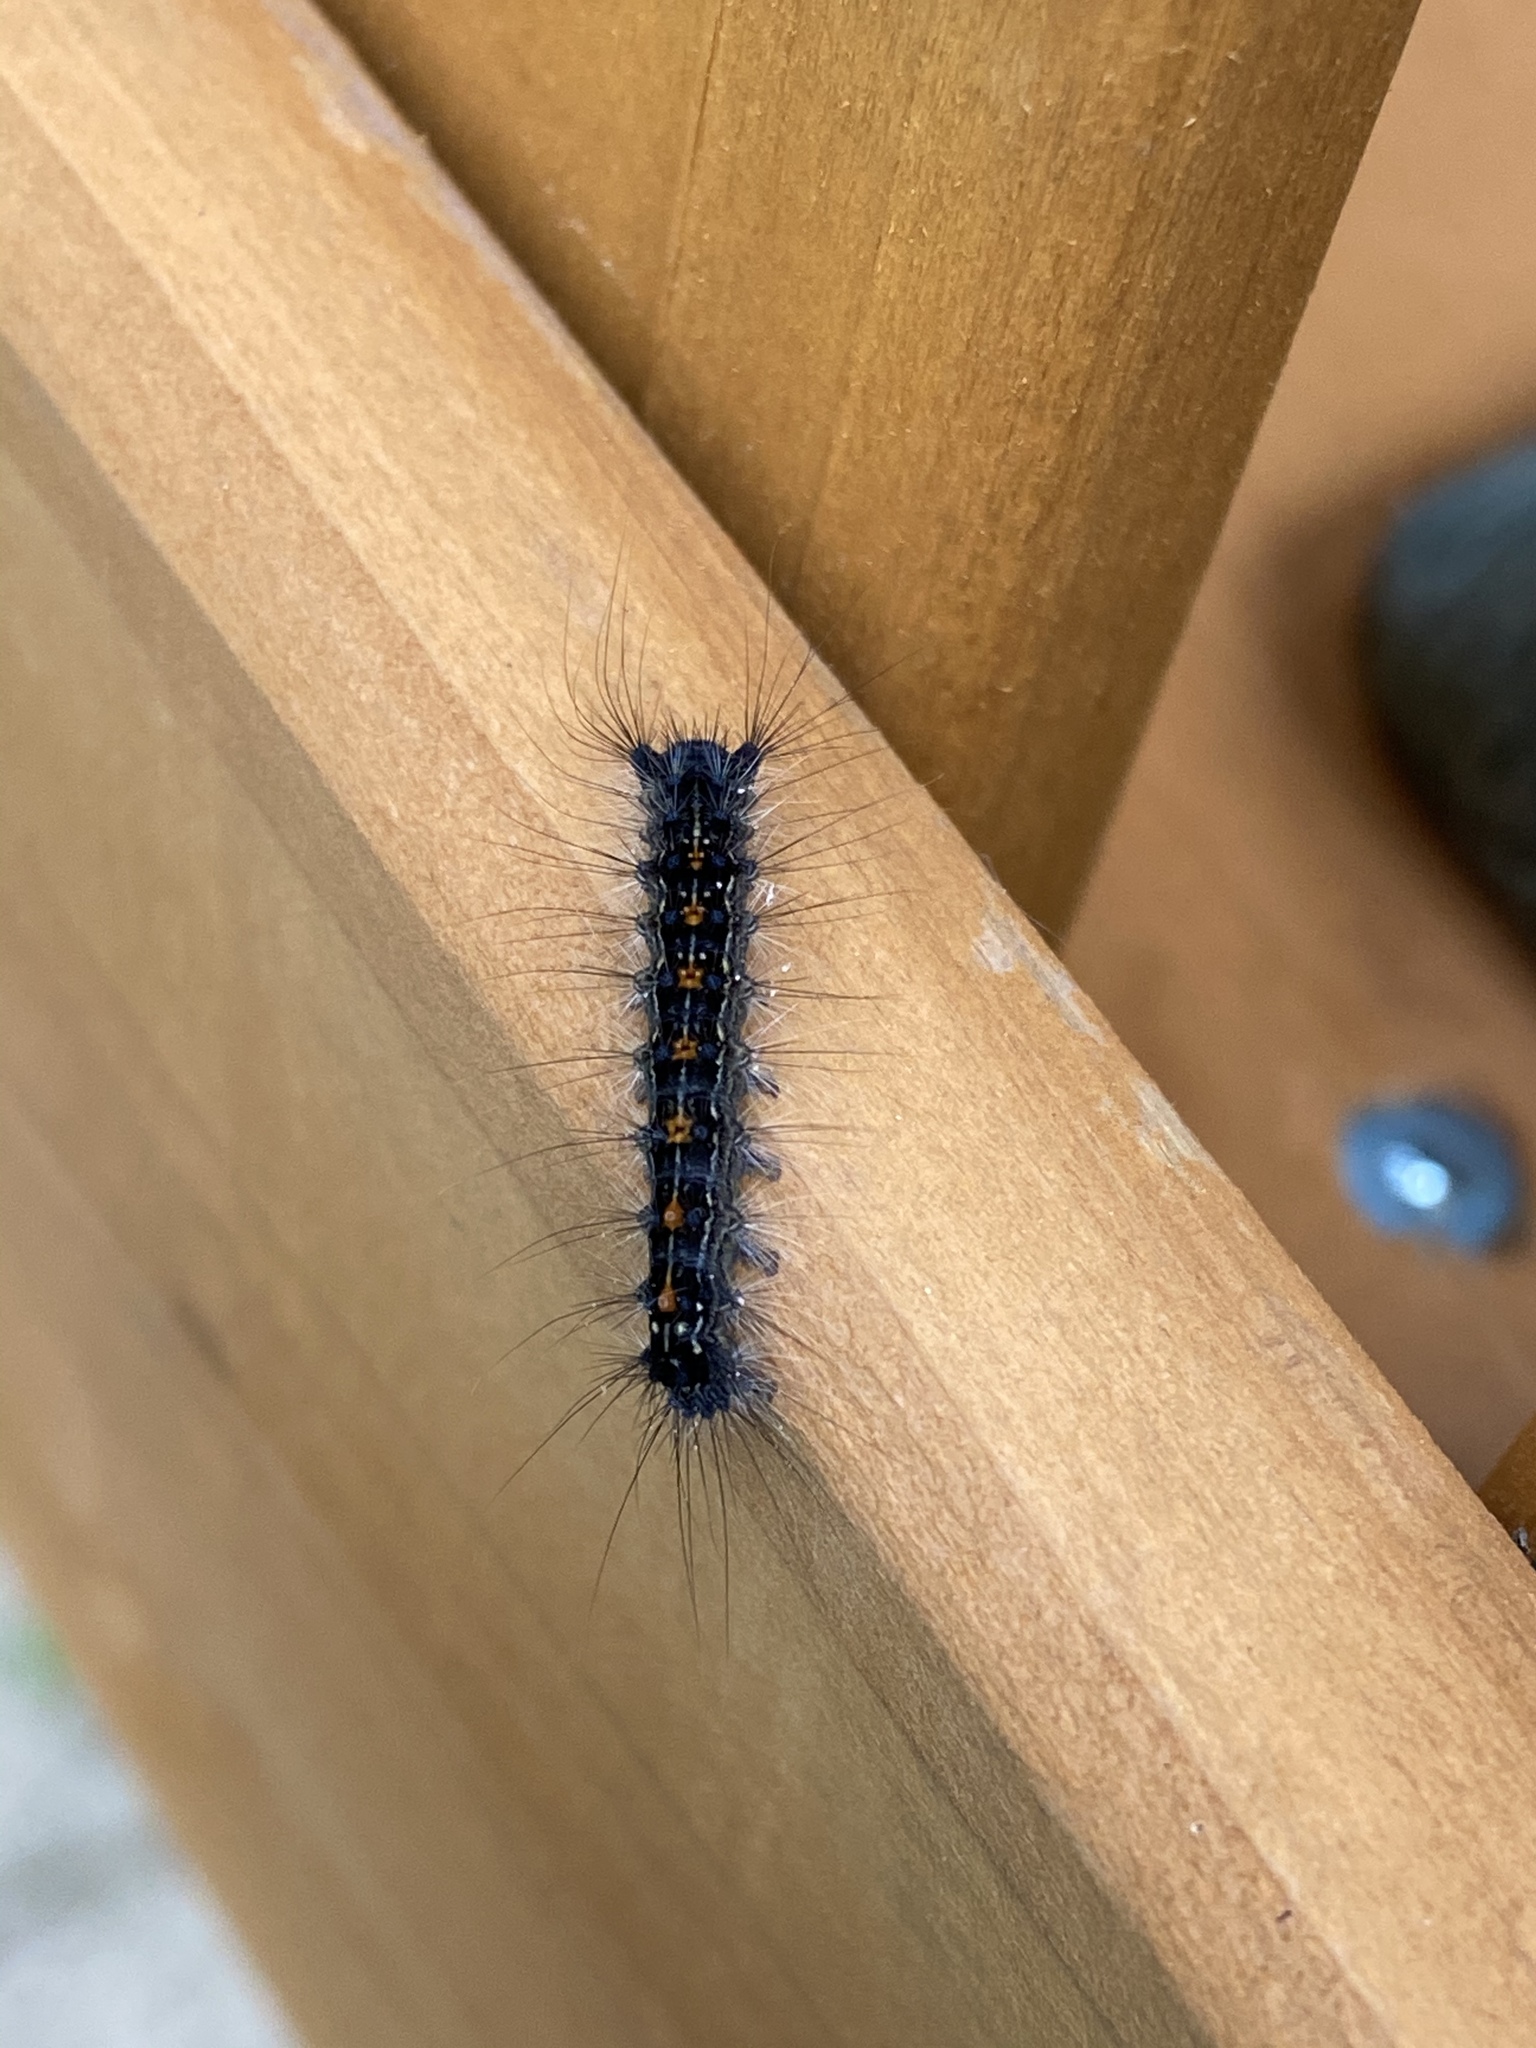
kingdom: Animalia
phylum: Arthropoda
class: Insecta
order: Lepidoptera
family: Erebidae
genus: Lymantria
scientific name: Lymantria dispar
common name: Gypsy moth
